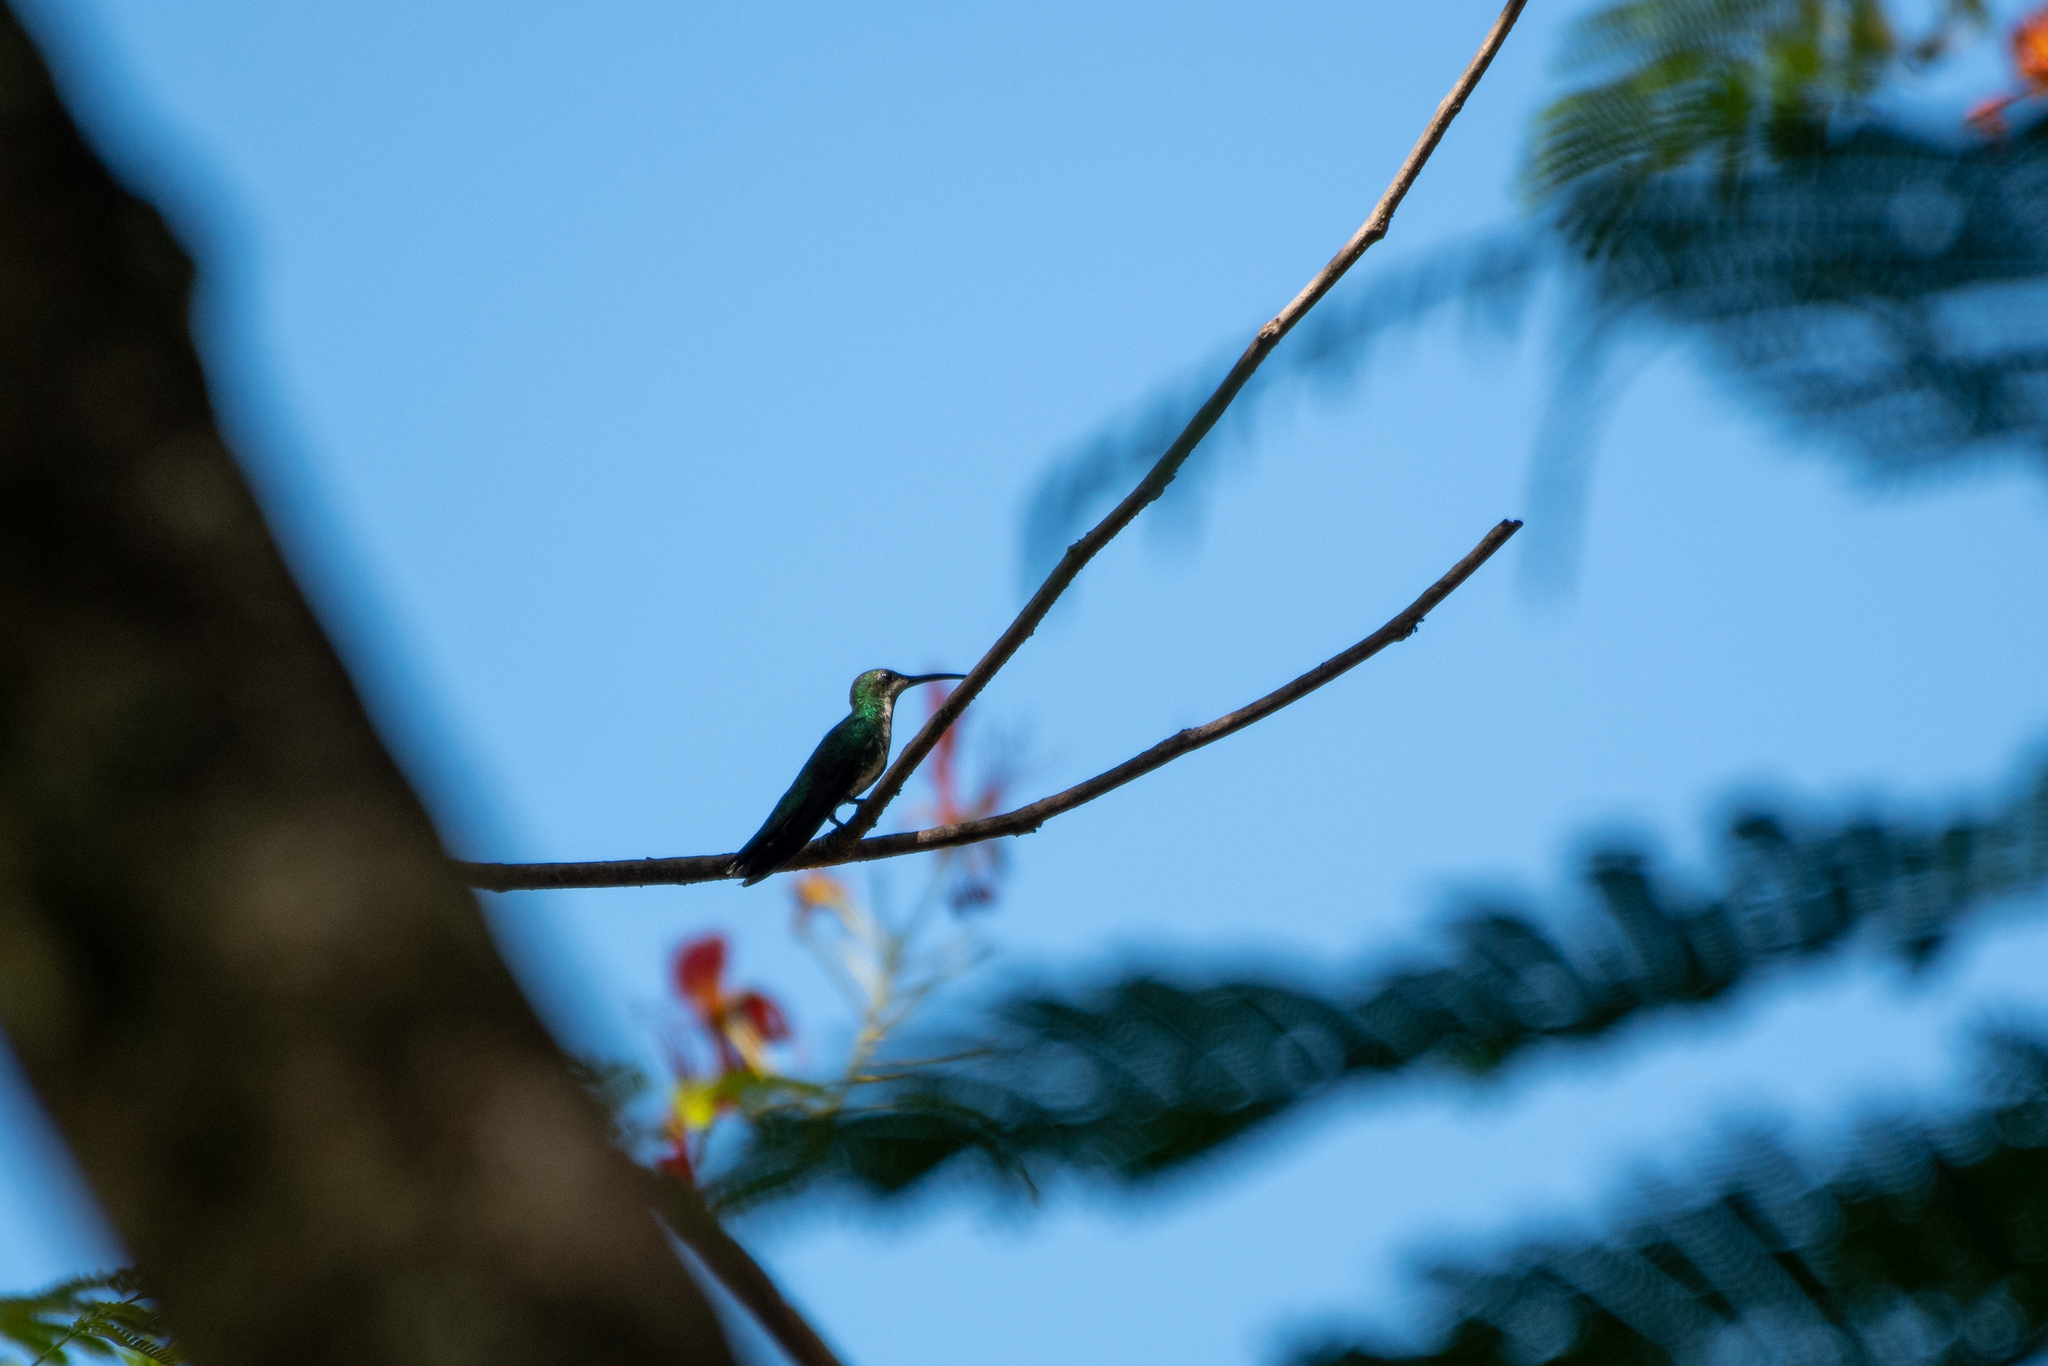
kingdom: Animalia
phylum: Chordata
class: Aves
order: Apodiformes
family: Trochilidae
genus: Anthracothorax
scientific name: Anthracothorax prevostii
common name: Green-breasted mango
